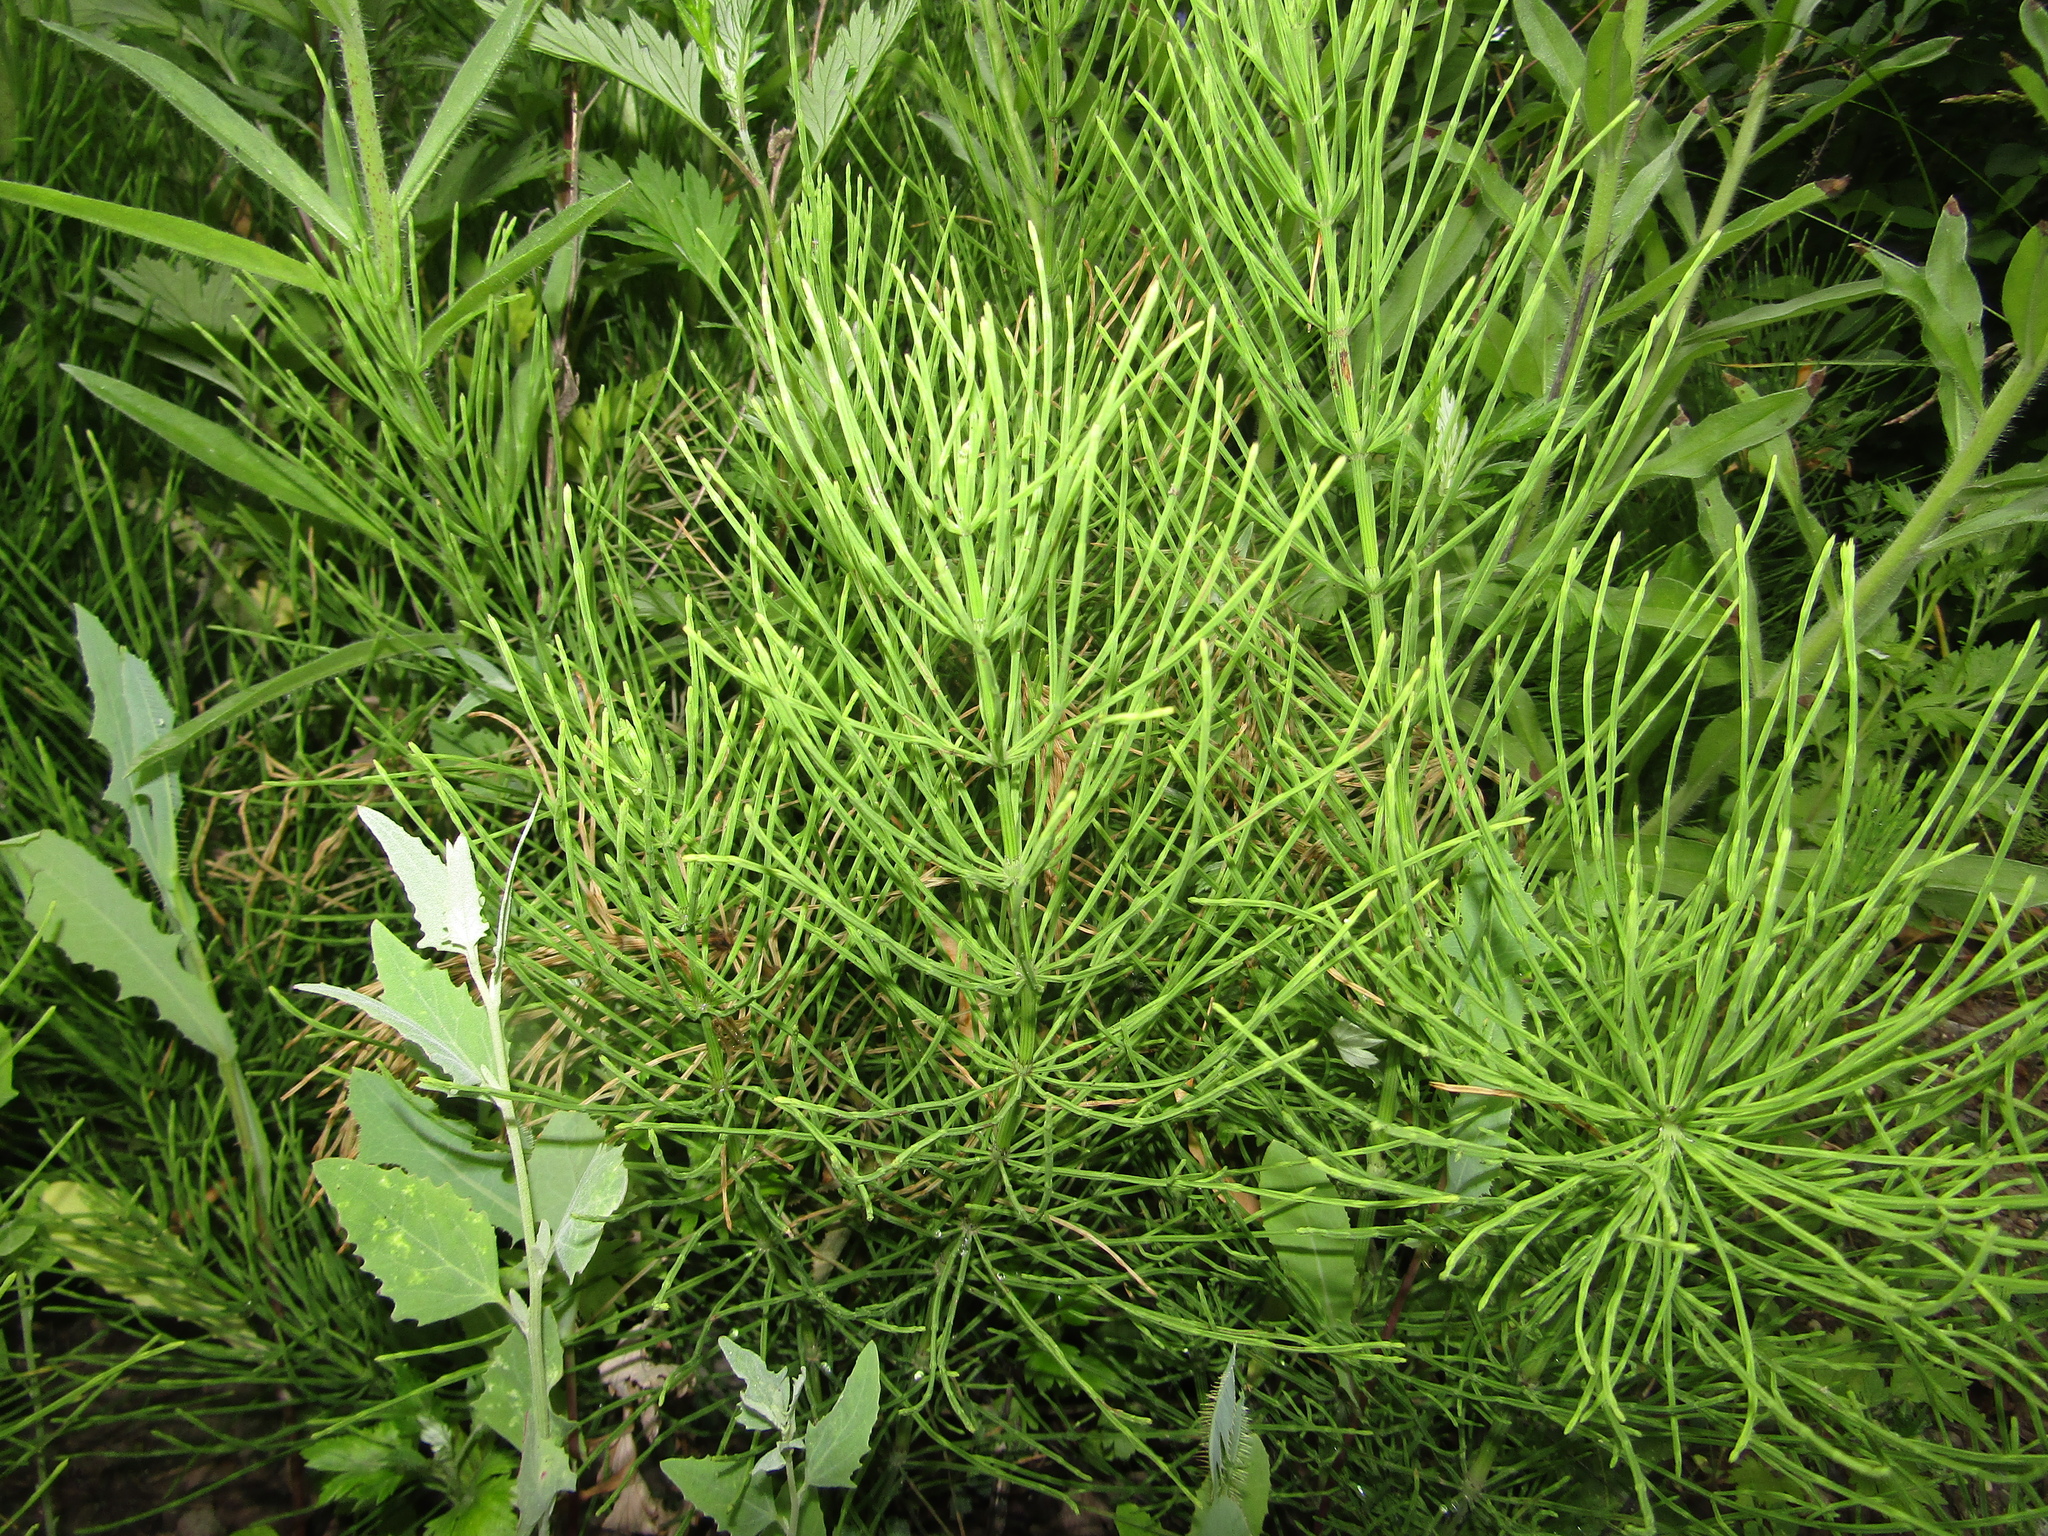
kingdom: Plantae
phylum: Tracheophyta
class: Polypodiopsida
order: Equisetales
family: Equisetaceae
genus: Equisetum
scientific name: Equisetum arvense
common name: Field horsetail
